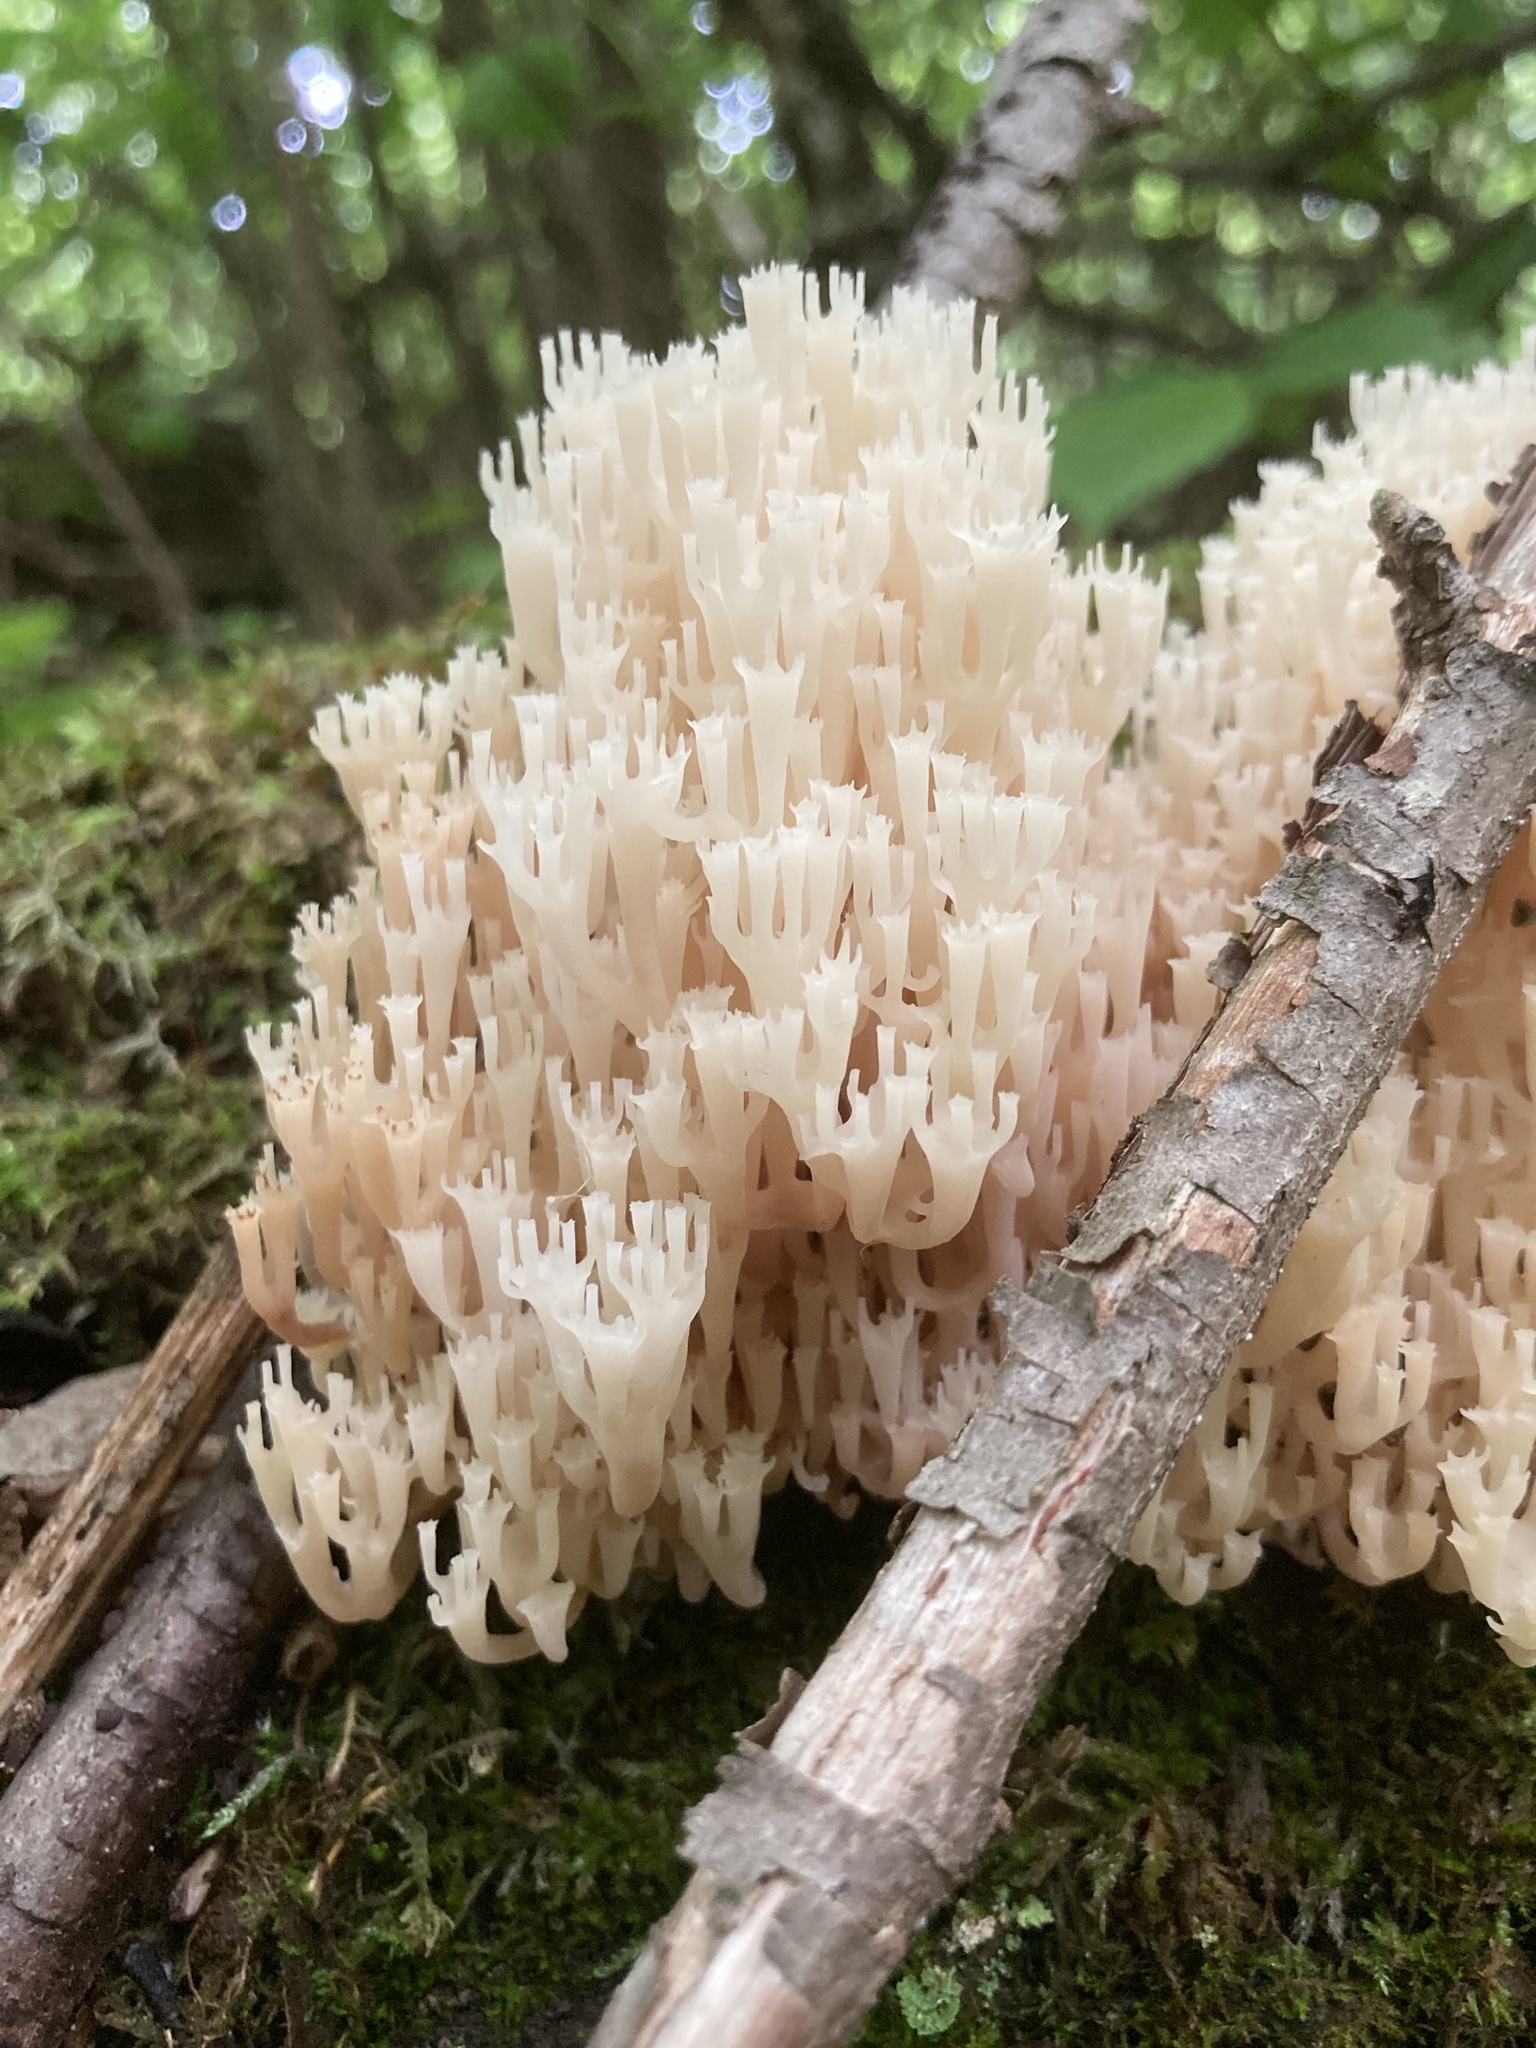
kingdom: Fungi
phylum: Basidiomycota
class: Agaricomycetes
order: Russulales
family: Auriscalpiaceae
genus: Artomyces
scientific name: Artomyces pyxidatus
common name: Crown-tipped coral fungus
